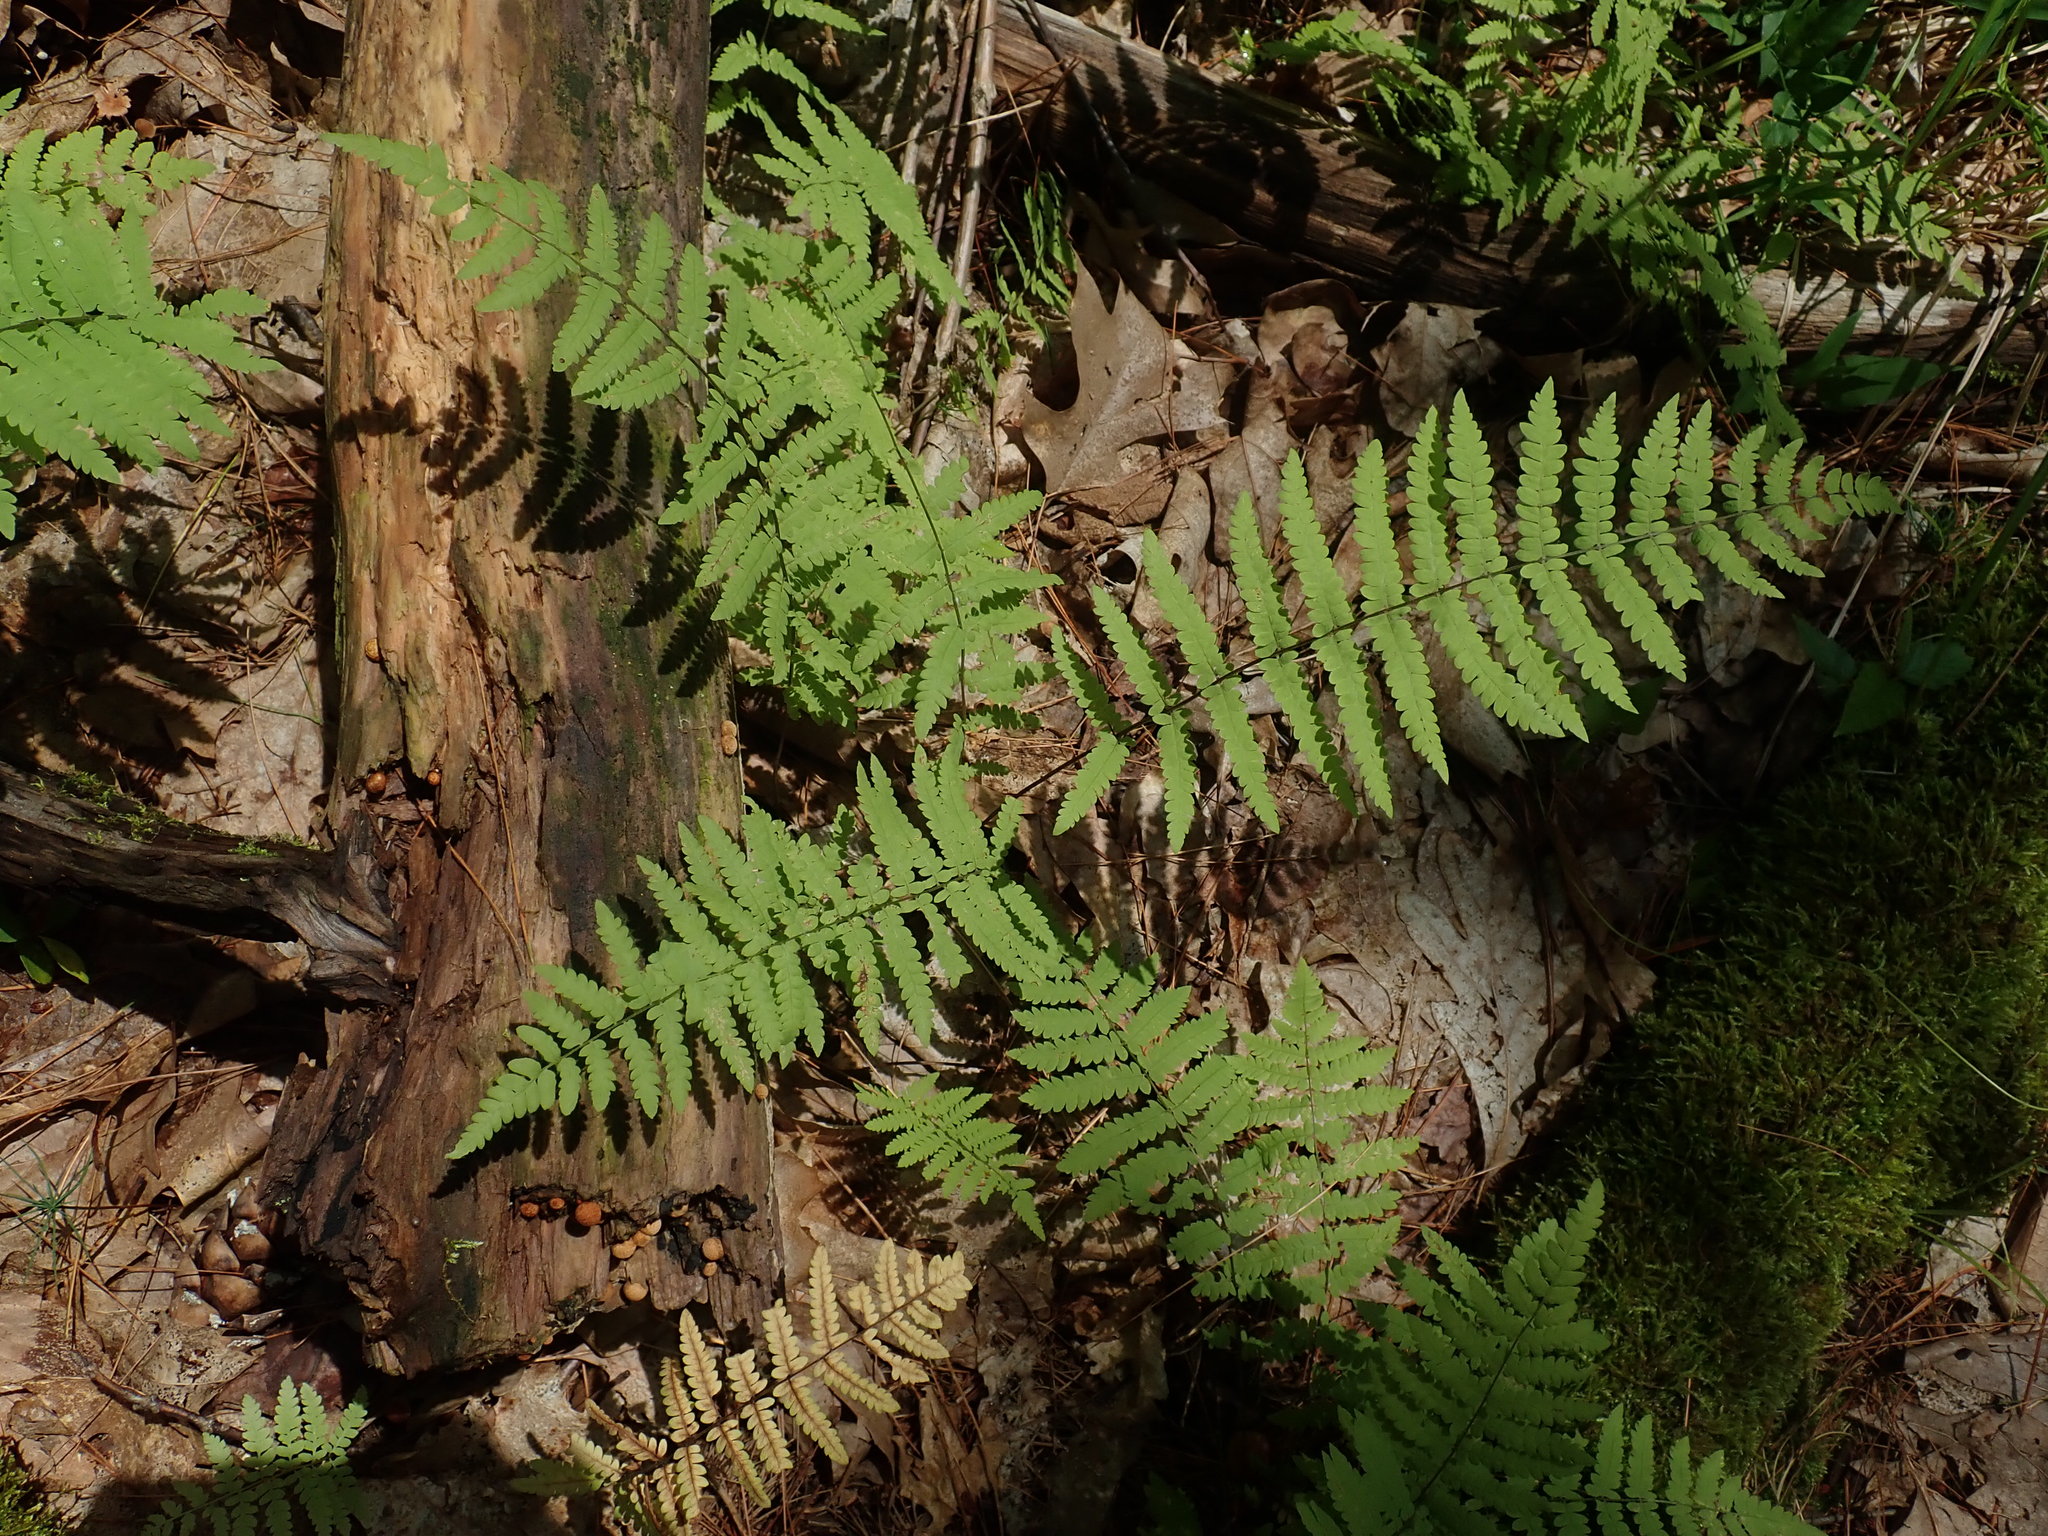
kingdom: Plantae
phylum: Tracheophyta
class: Polypodiopsida
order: Polypodiales
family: Thelypteridaceae
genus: Thelypteris
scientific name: Thelypteris palustris
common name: Marsh fern
